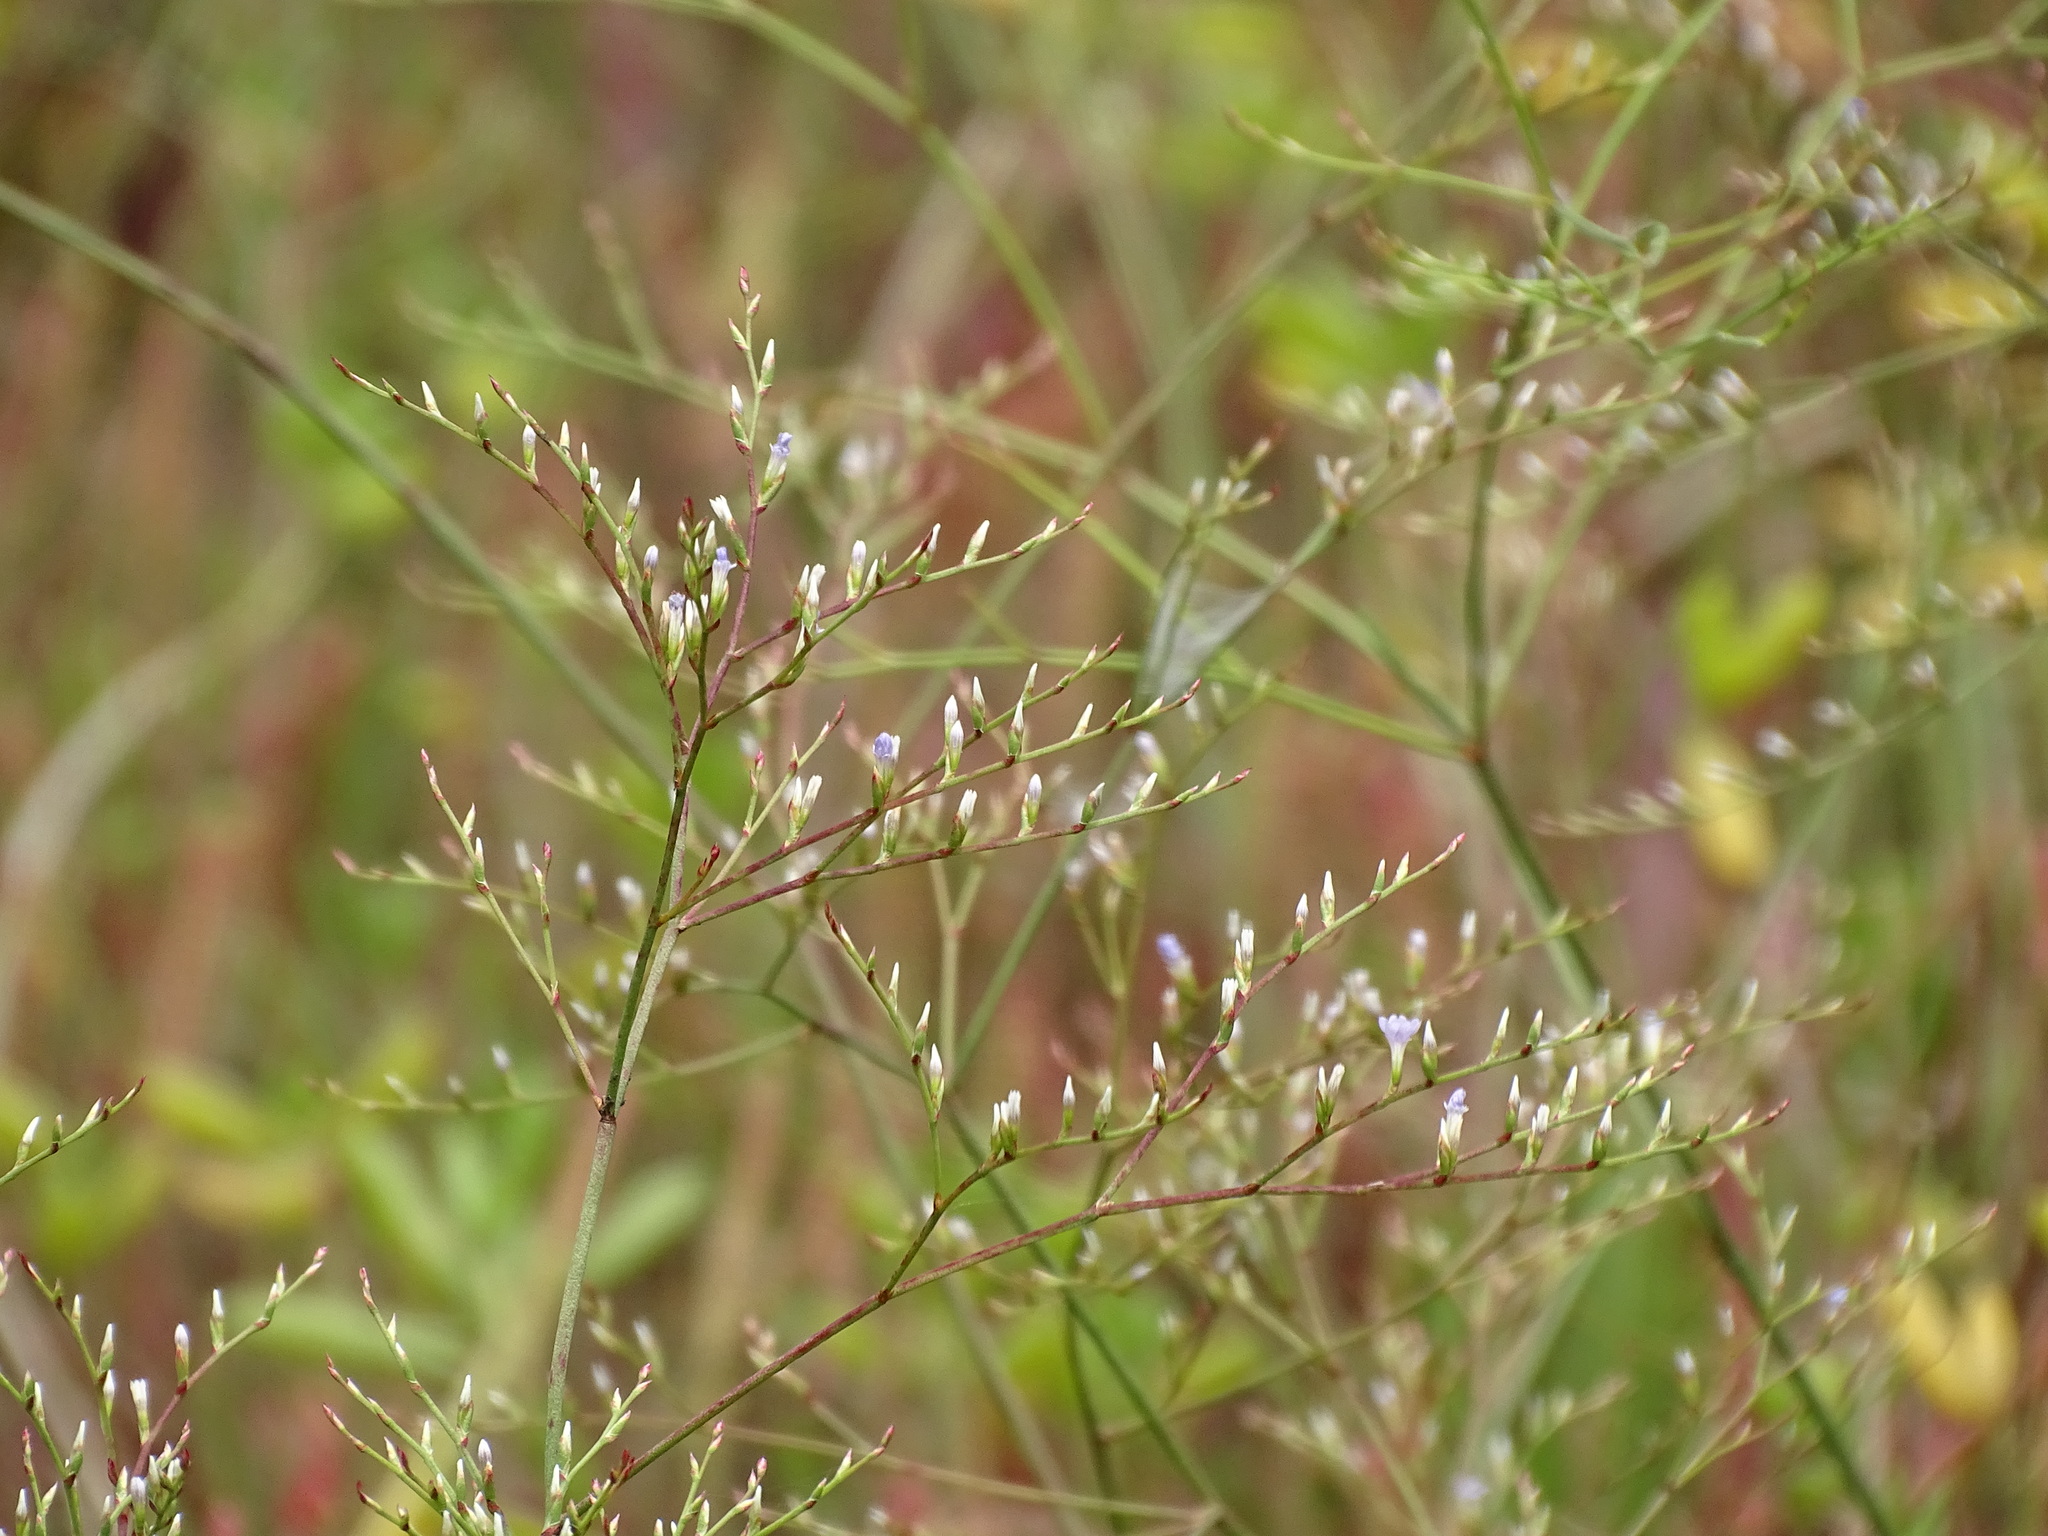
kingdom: Plantae
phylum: Tracheophyta
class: Magnoliopsida
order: Caryophyllales
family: Plumbaginaceae
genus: Limonium
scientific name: Limonium carolinianum
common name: Carolina sea lavender
